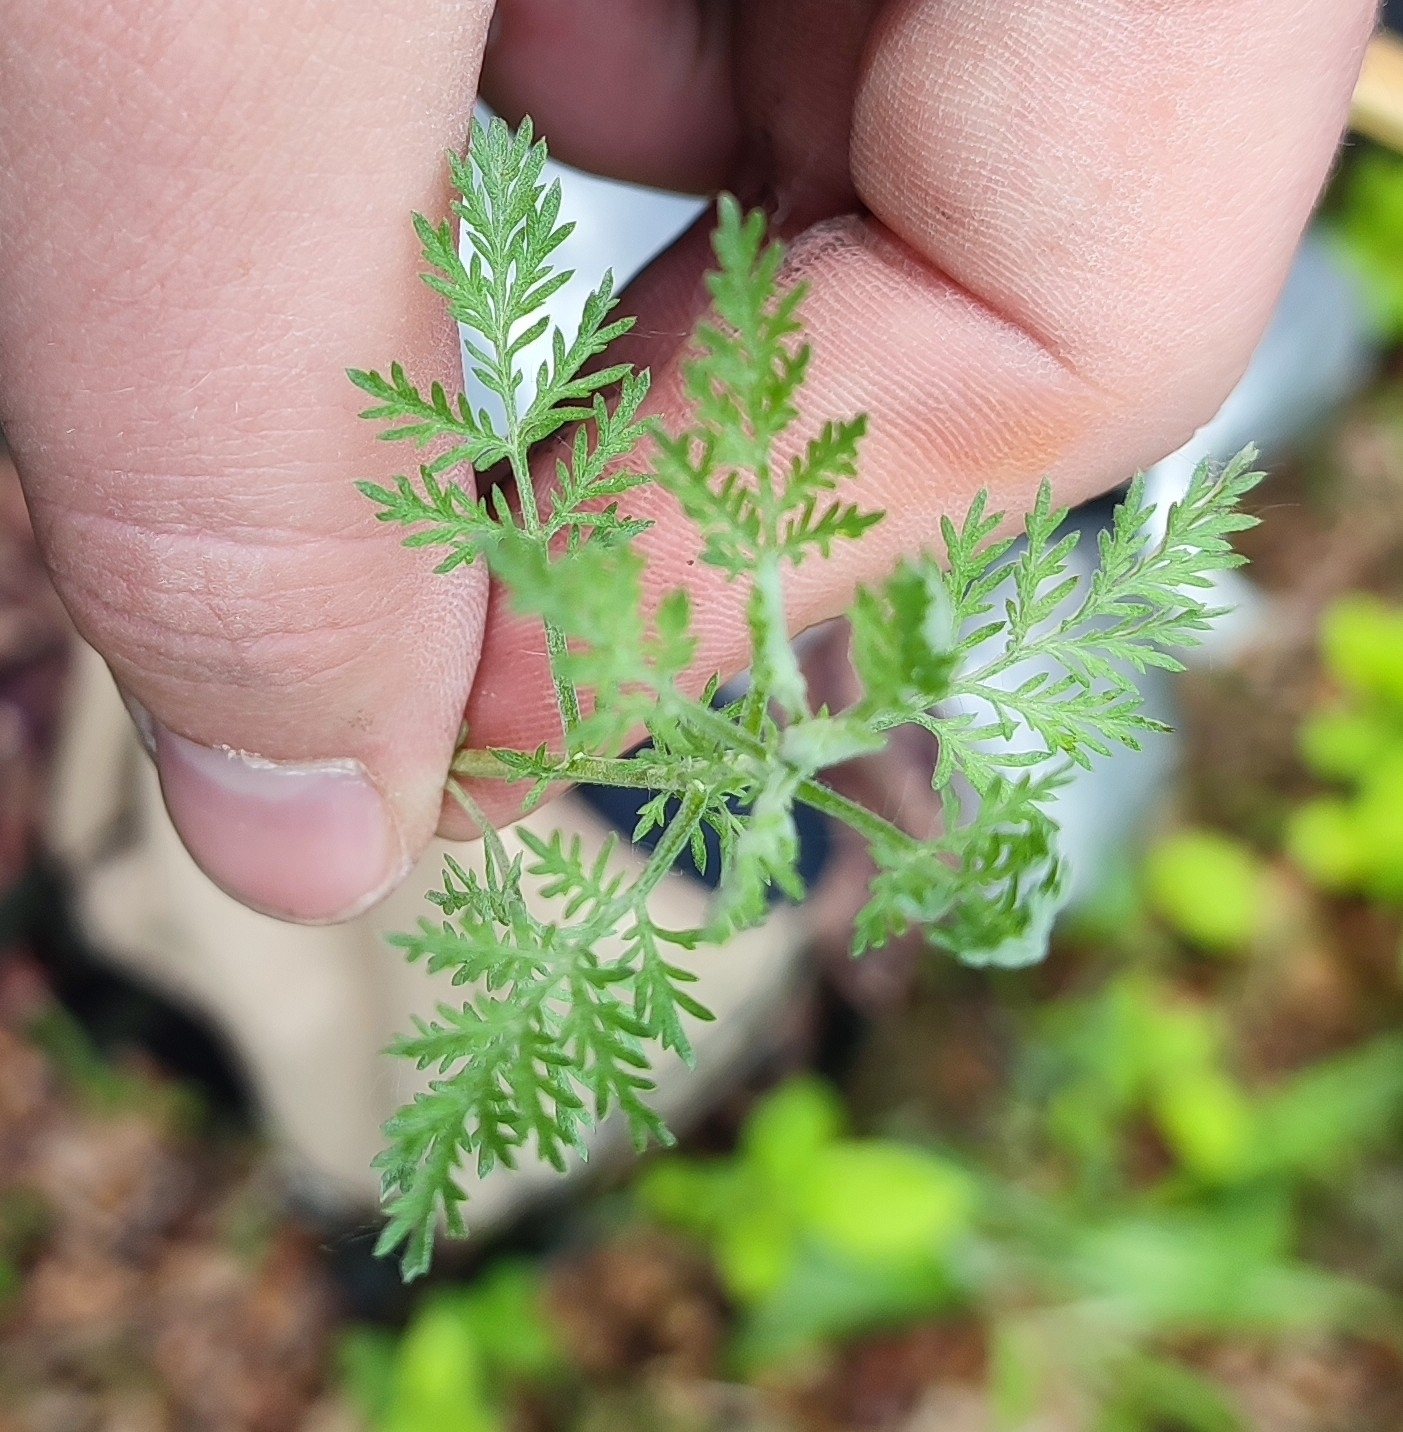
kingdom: Plantae
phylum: Tracheophyta
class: Magnoliopsida
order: Asterales
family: Asteraceae
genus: Artemisia
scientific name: Artemisia pontica
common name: Roman wormwood
